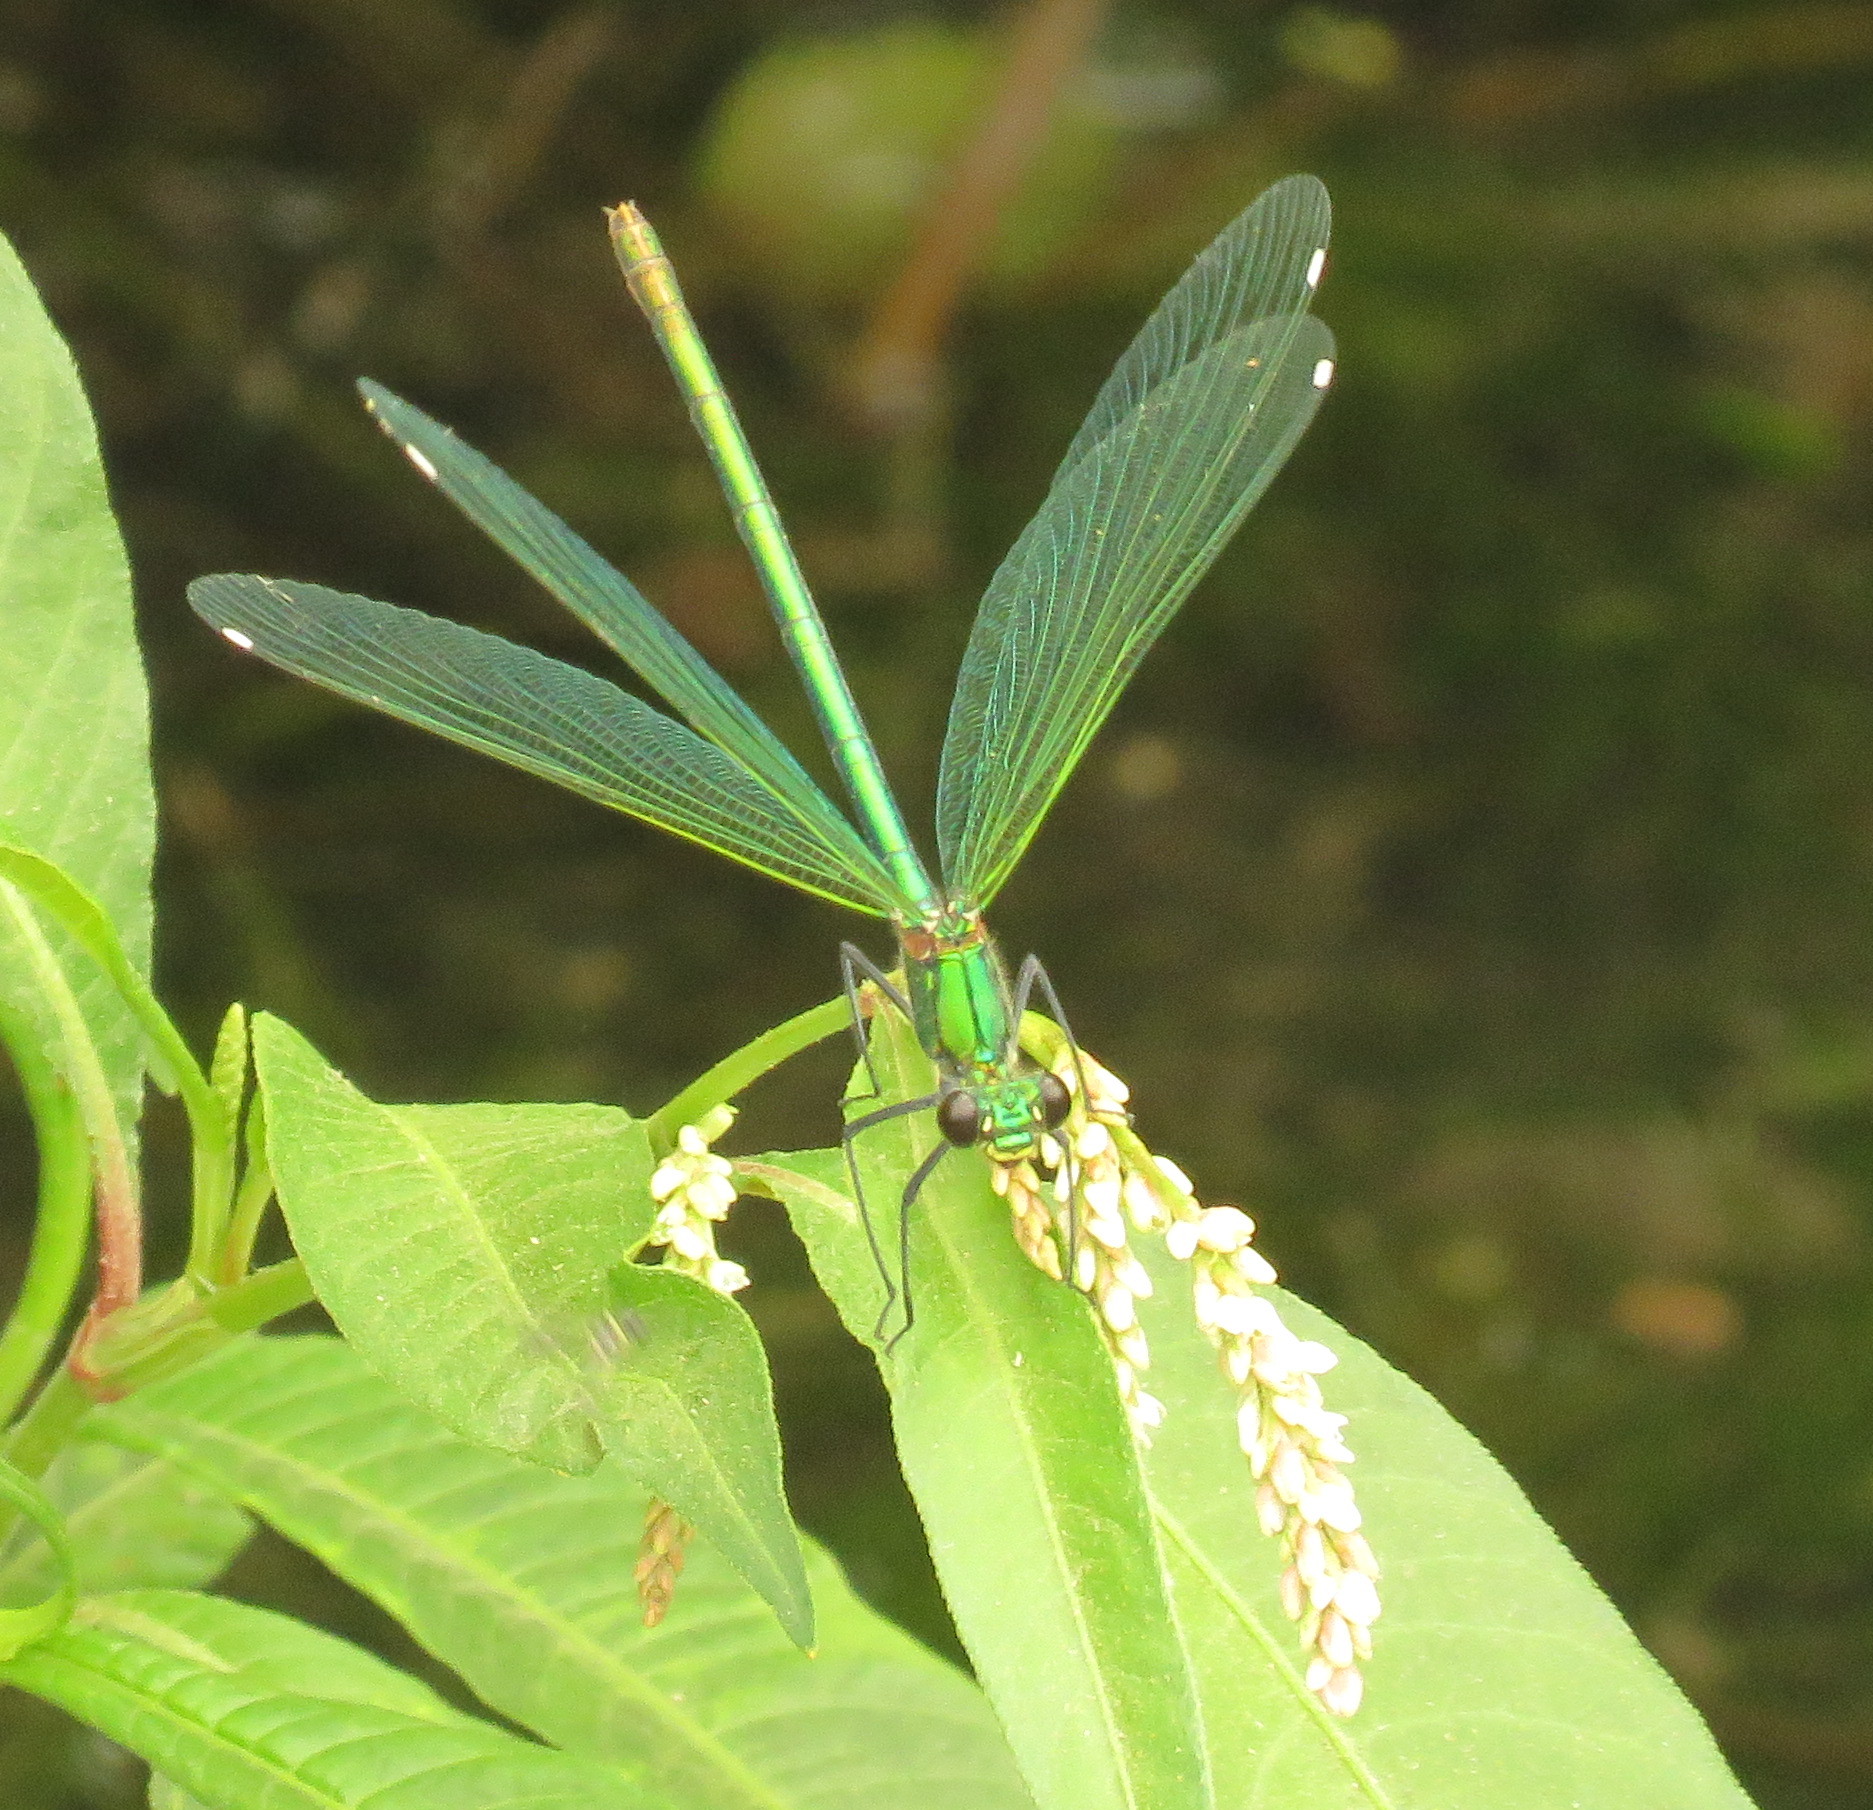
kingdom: Animalia
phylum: Arthropoda
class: Insecta
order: Odonata
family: Calopterygidae
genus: Calopteryx
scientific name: Calopteryx splendens
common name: Banded demoiselle
